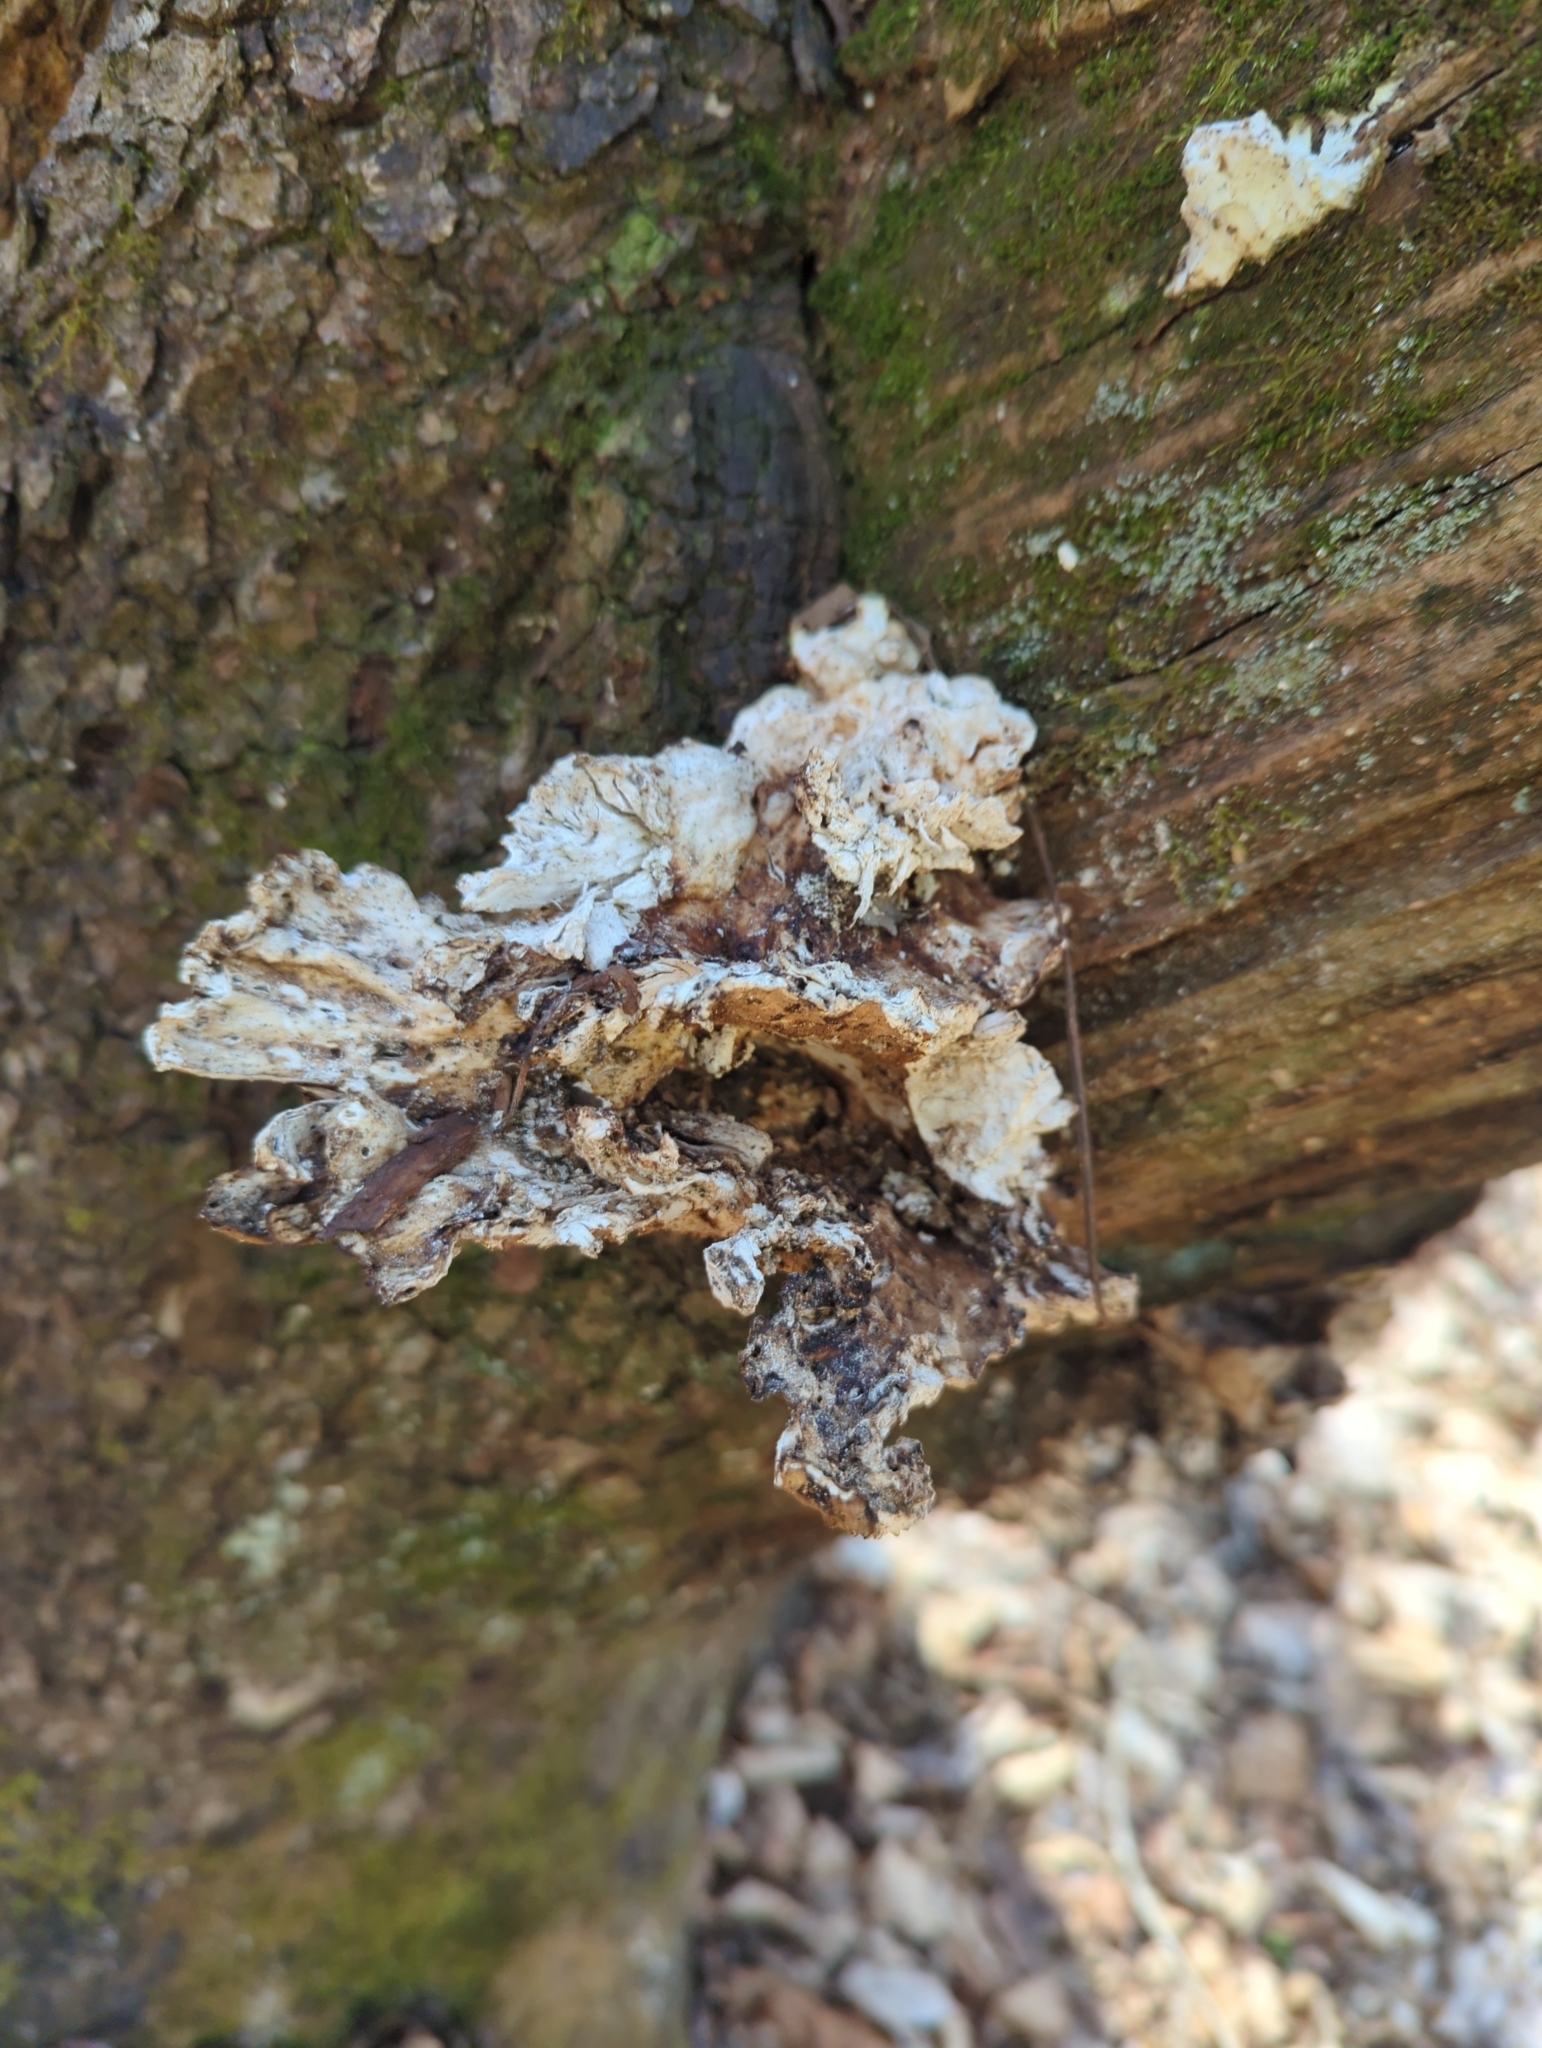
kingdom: Fungi
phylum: Basidiomycota
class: Agaricomycetes
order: Polyporales
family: Laetiporaceae
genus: Laetiporus
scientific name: Laetiporus sulphureus
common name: Chicken of the woods
